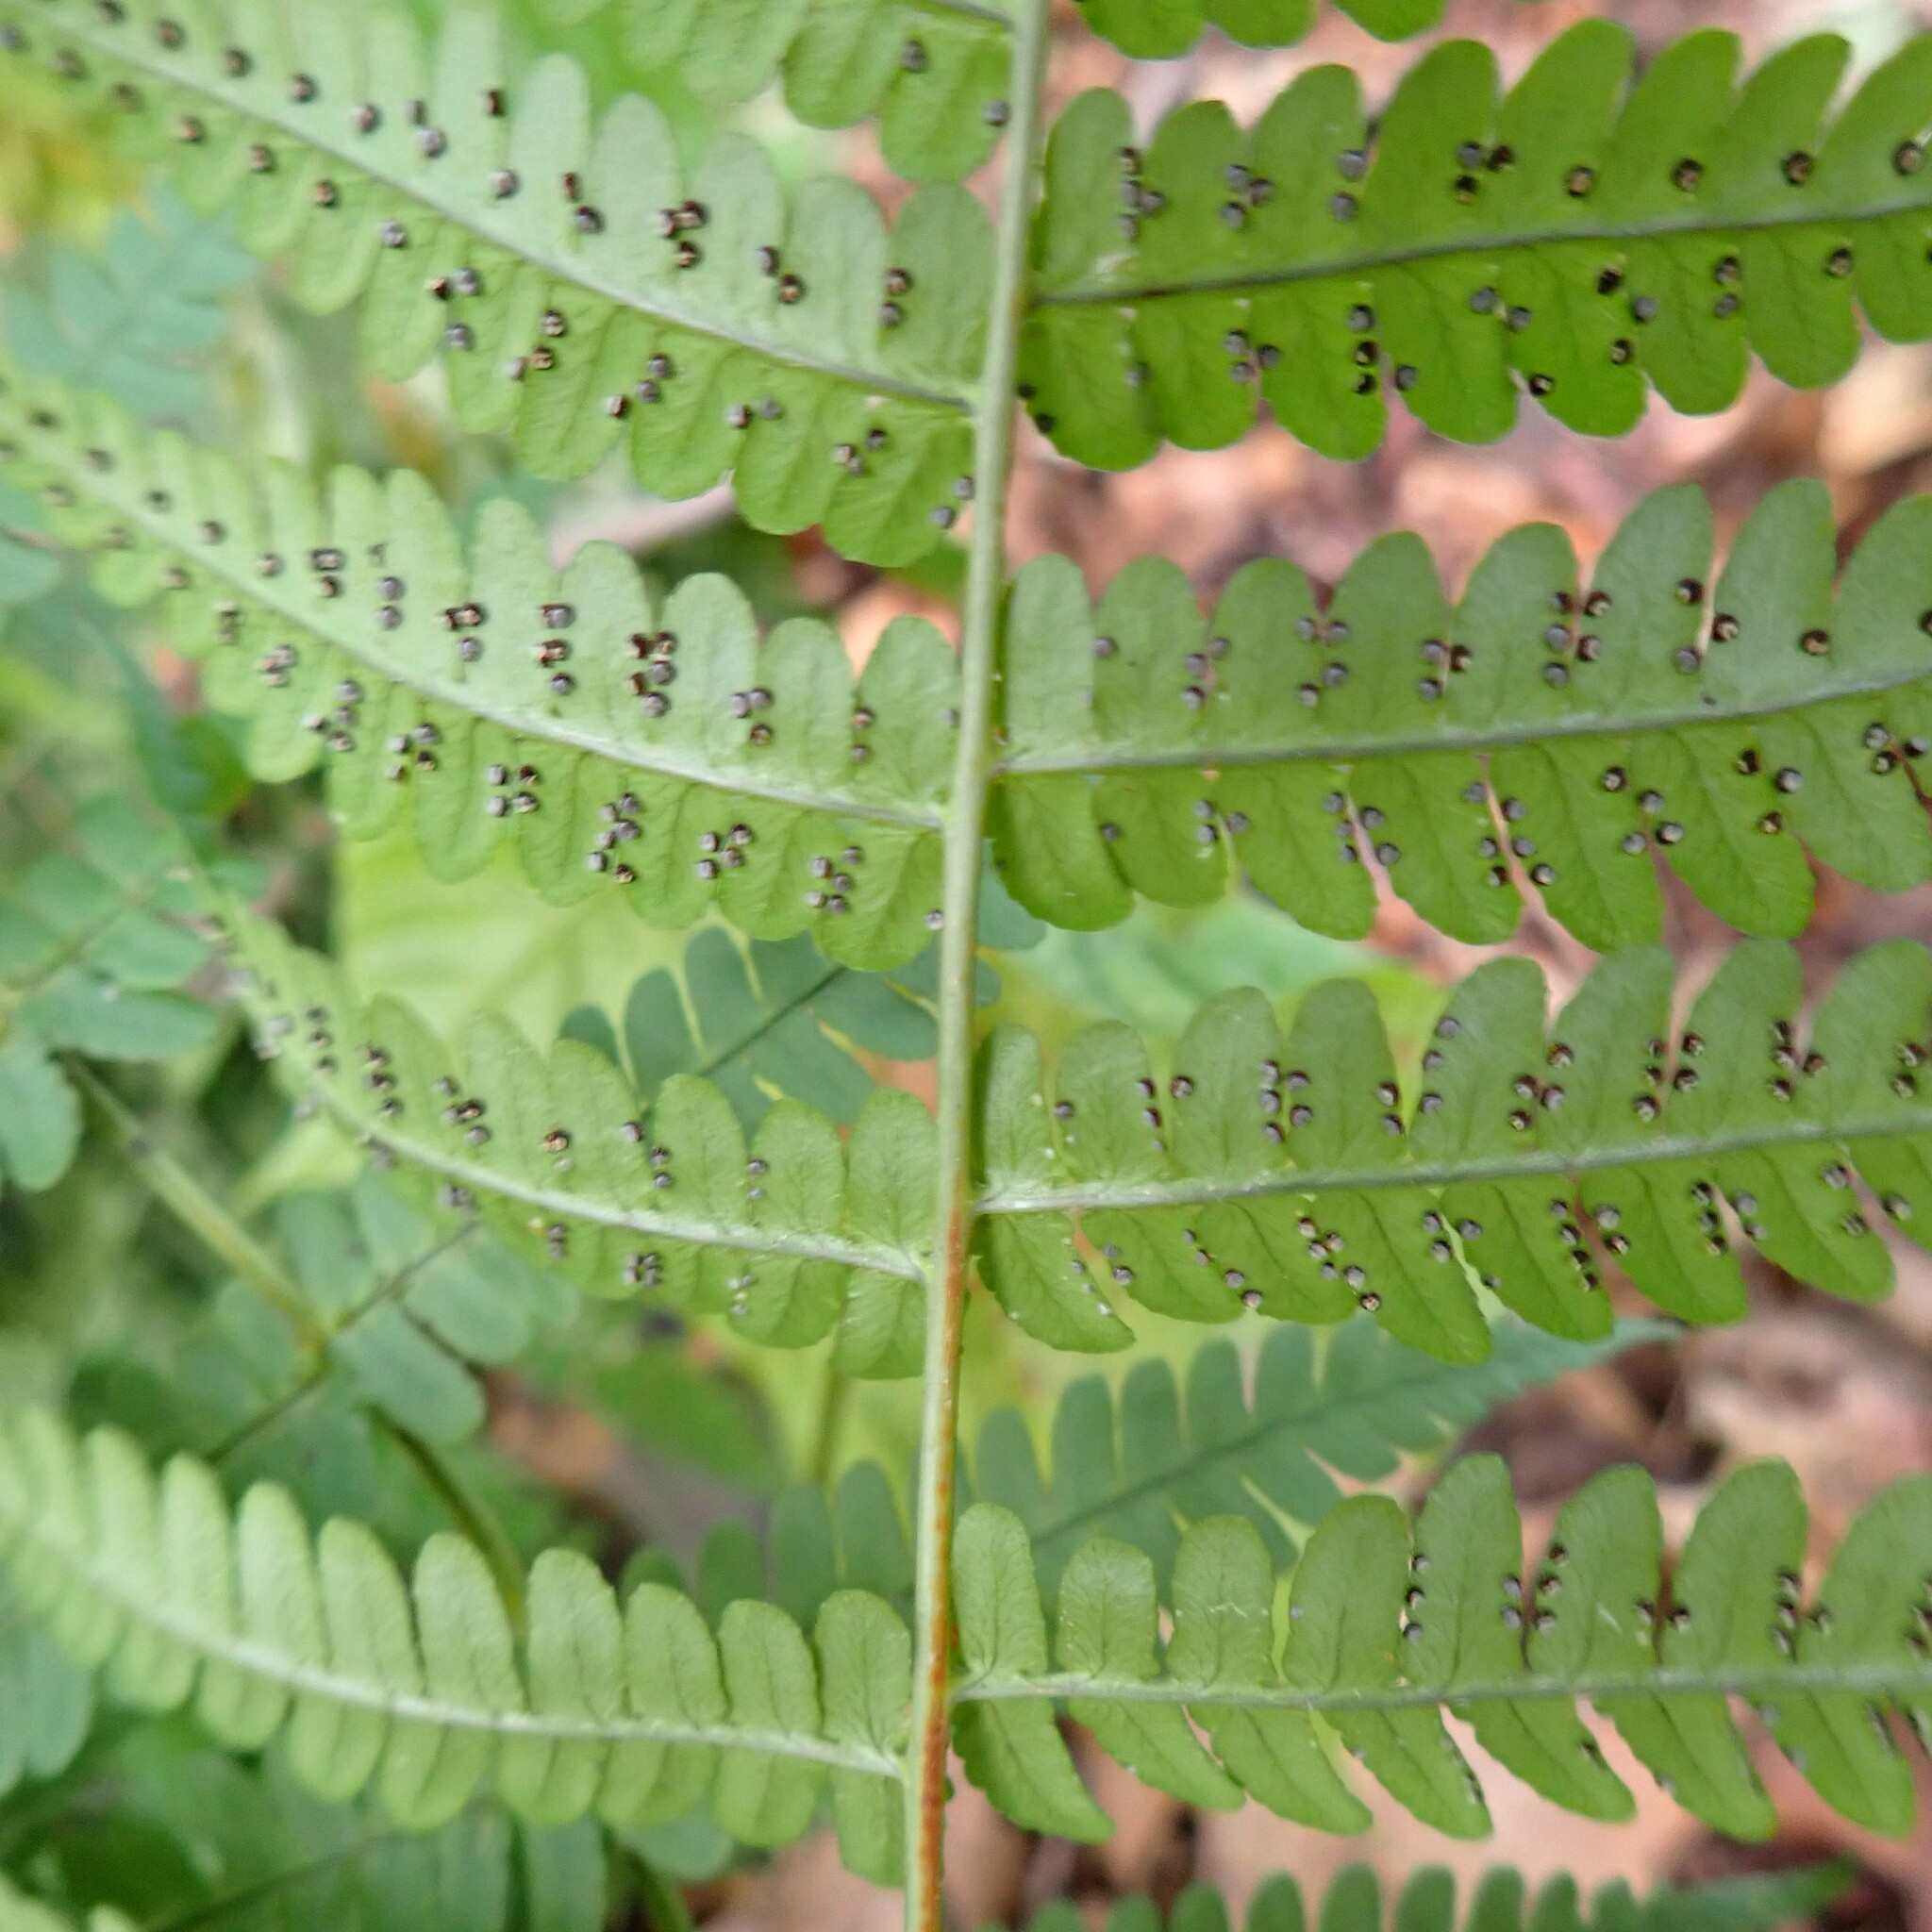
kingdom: Plantae
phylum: Tracheophyta
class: Polypodiopsida
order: Polypodiales
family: Dryopteridaceae
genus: Dryopteris
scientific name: Dryopteris marginalis
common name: Marginal wood fern
